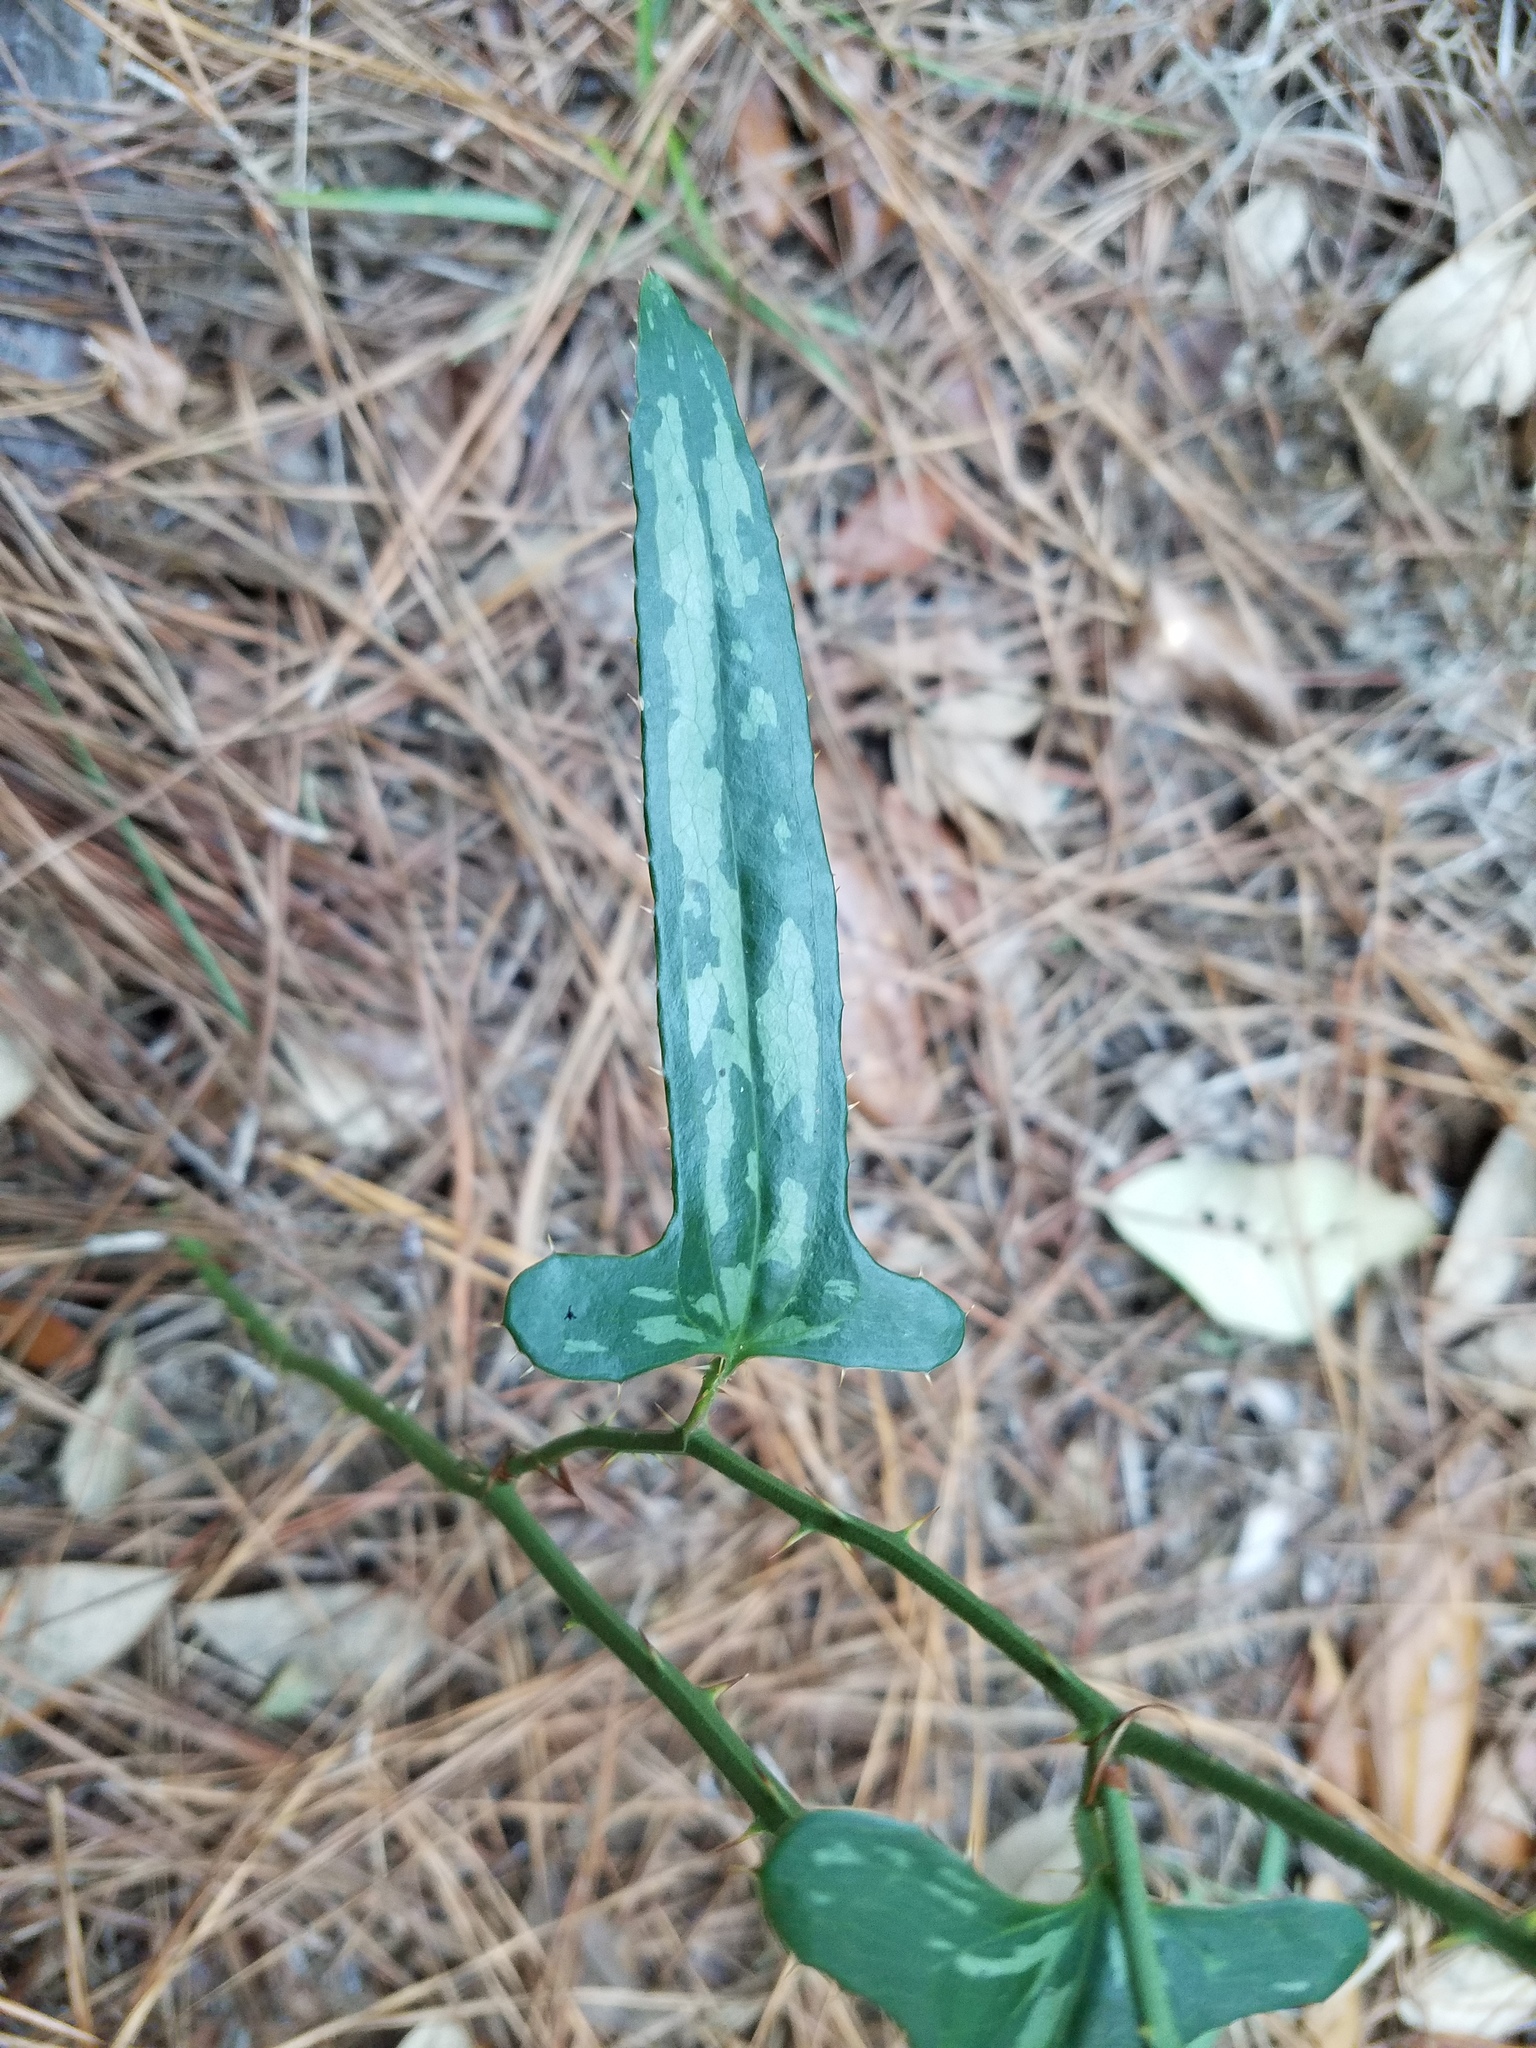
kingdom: Plantae
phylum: Tracheophyta
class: Liliopsida
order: Liliales
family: Smilacaceae
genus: Smilax
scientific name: Smilax bona-nox
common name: Catbrier
